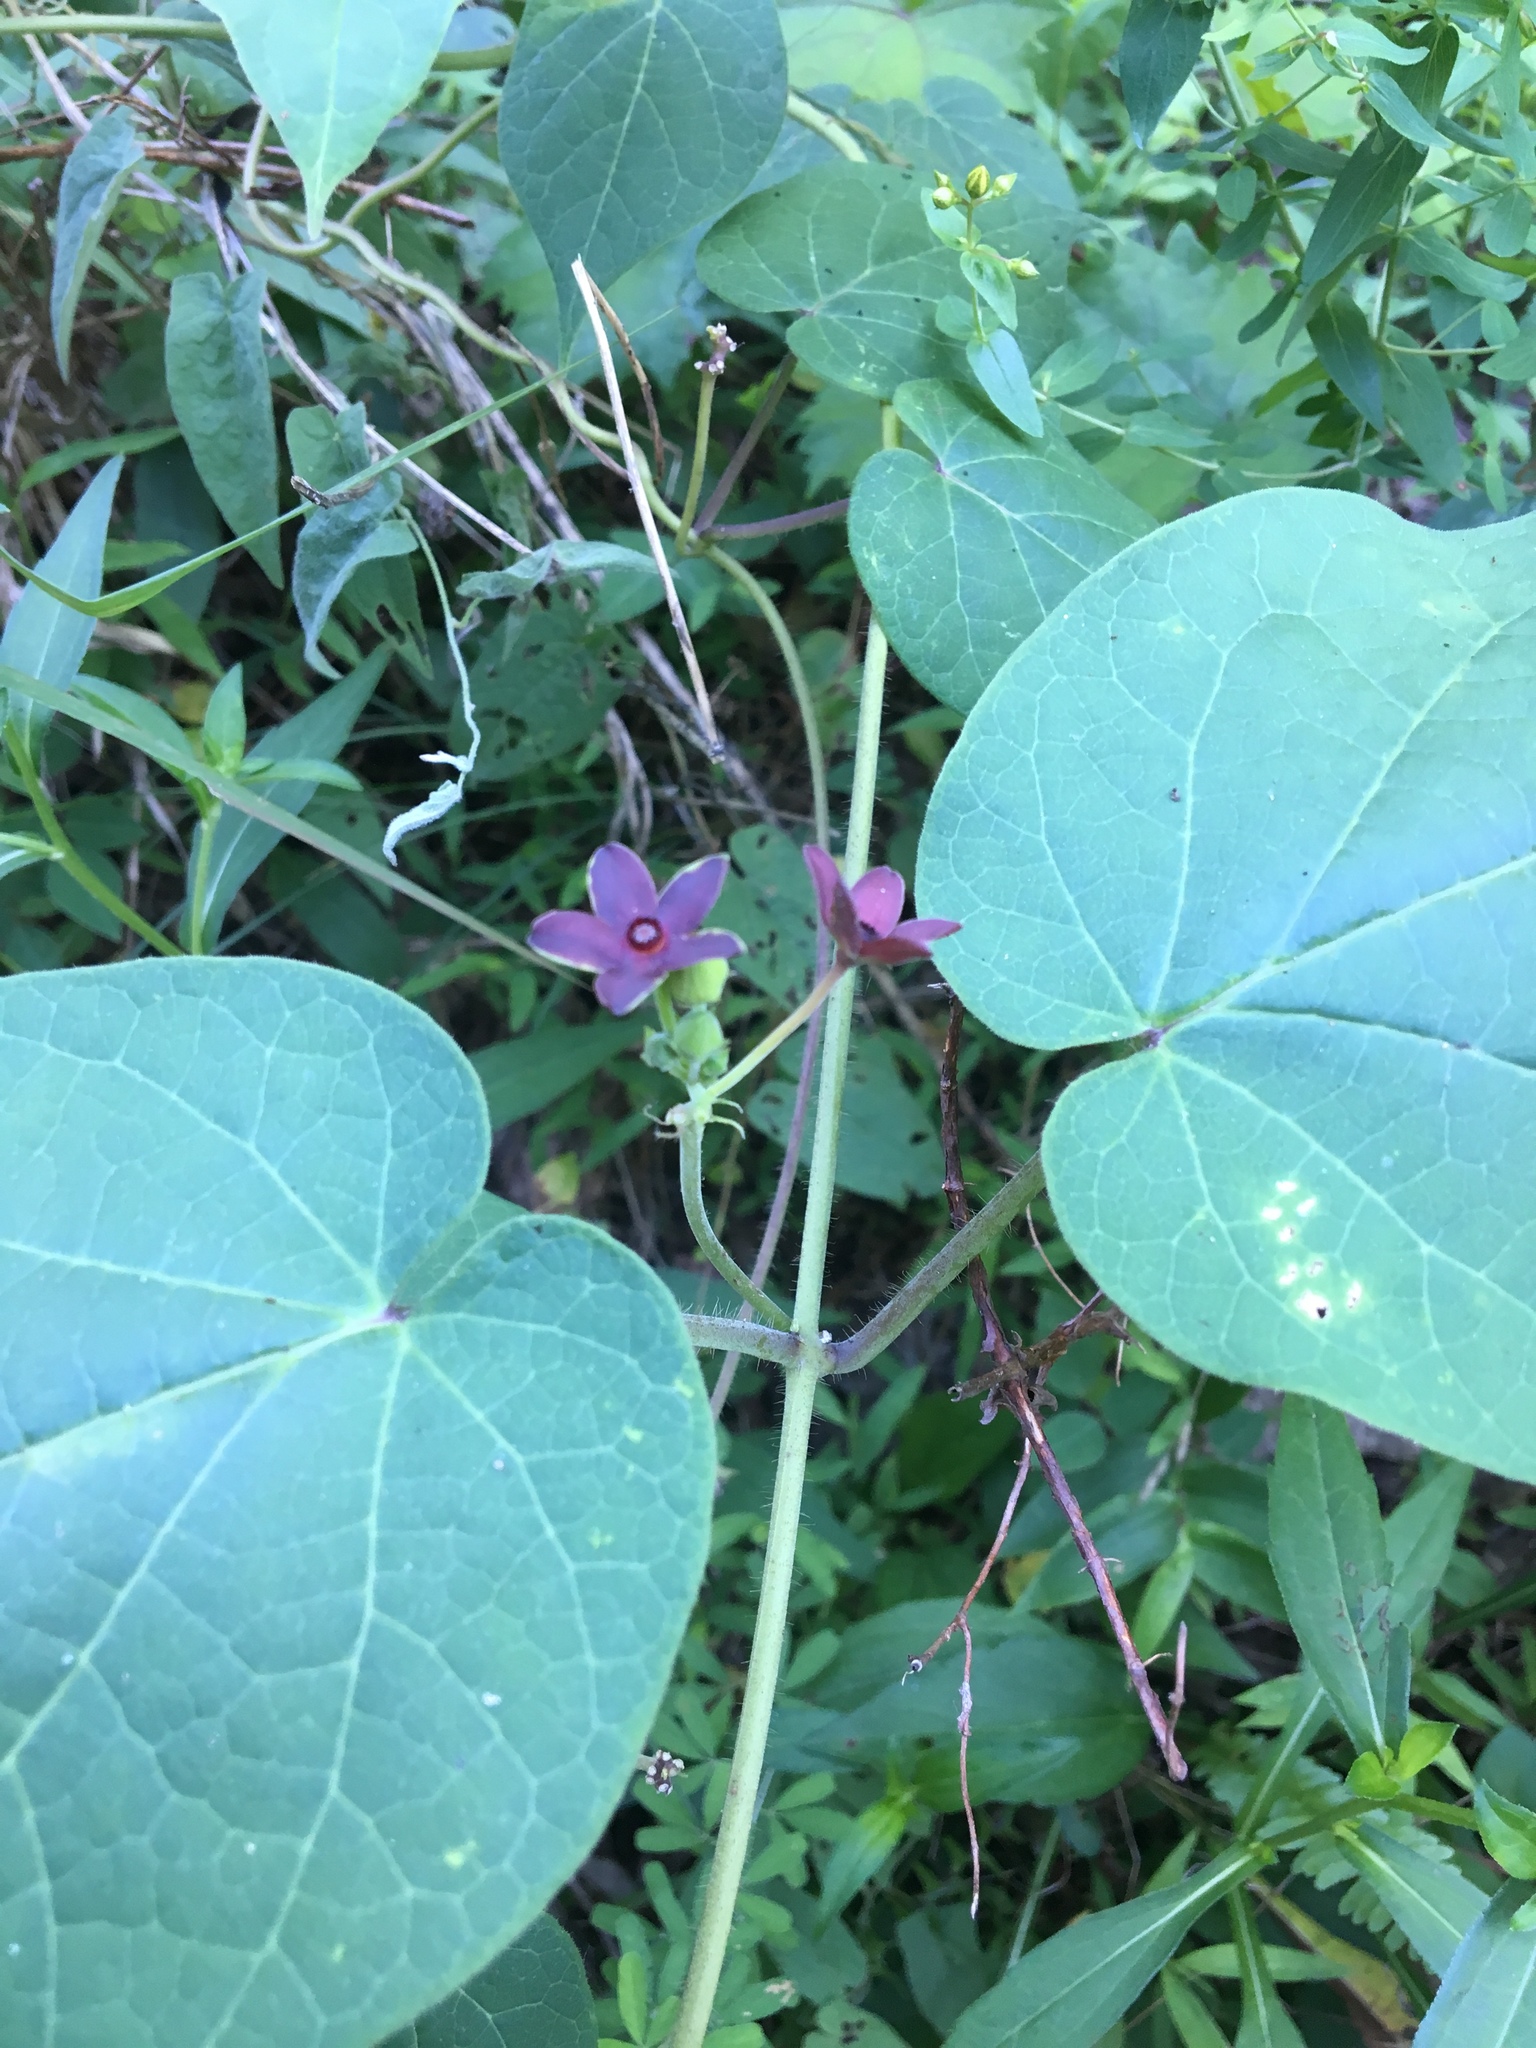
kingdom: Plantae
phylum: Tracheophyta
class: Magnoliopsida
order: Gentianales
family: Apocynaceae
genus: Matelea
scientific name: Matelea carolinensis
